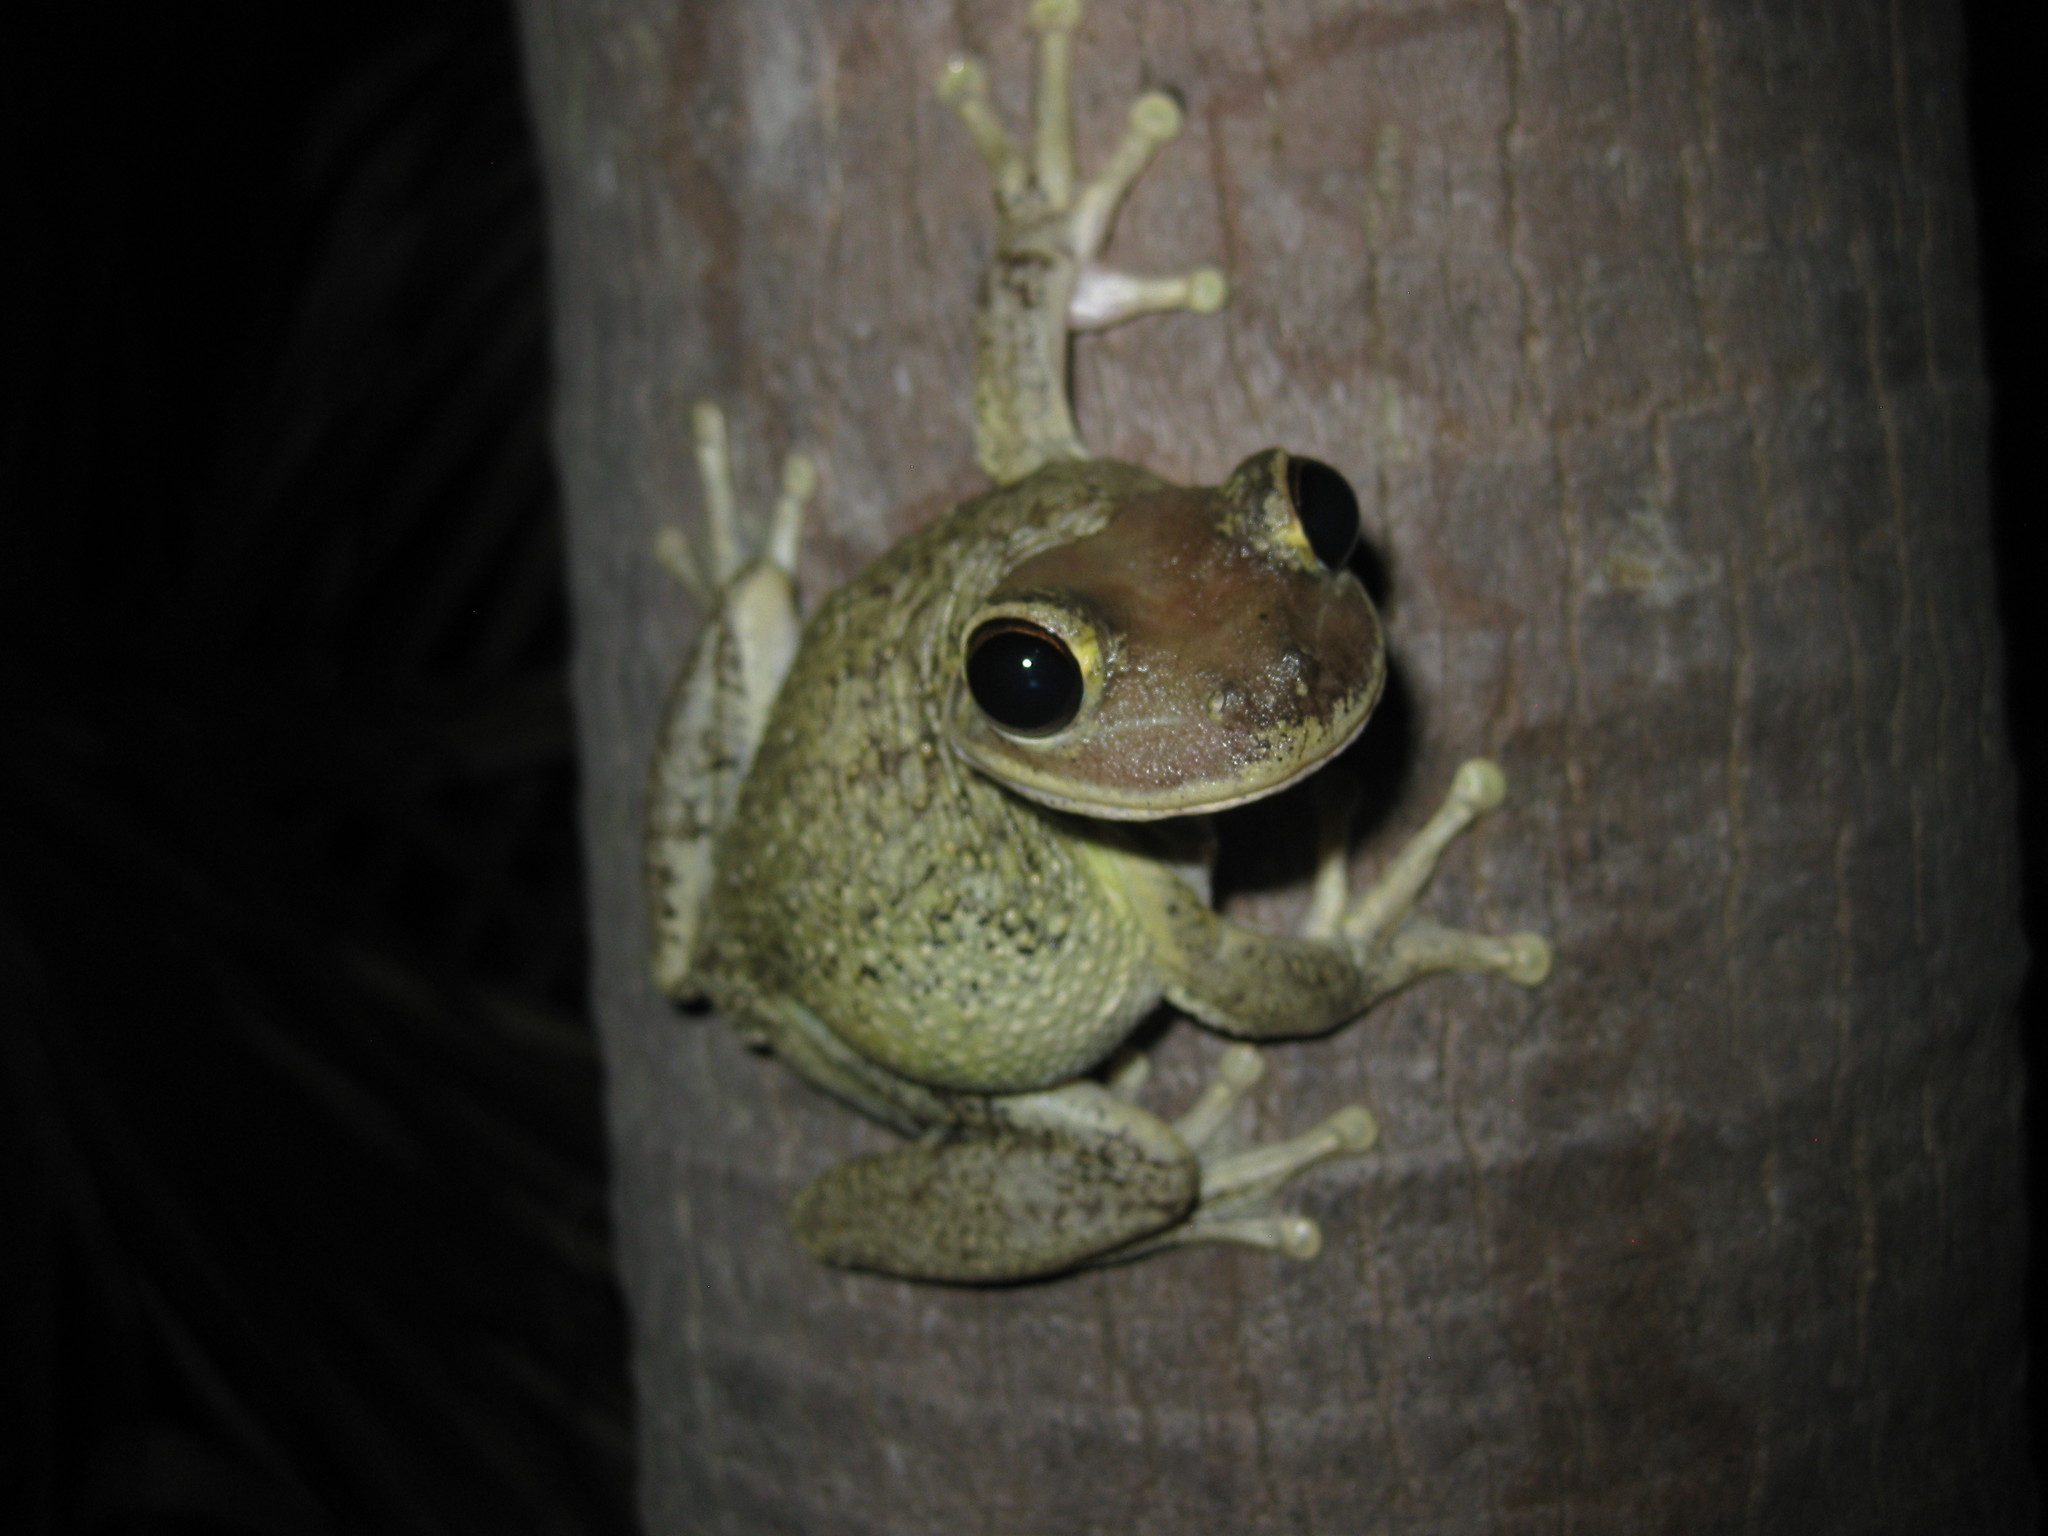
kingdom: Animalia
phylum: Chordata
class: Amphibia
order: Anura
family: Hylidae
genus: Osteopilus
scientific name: Osteopilus septentrionalis
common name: Cuban treefrog
